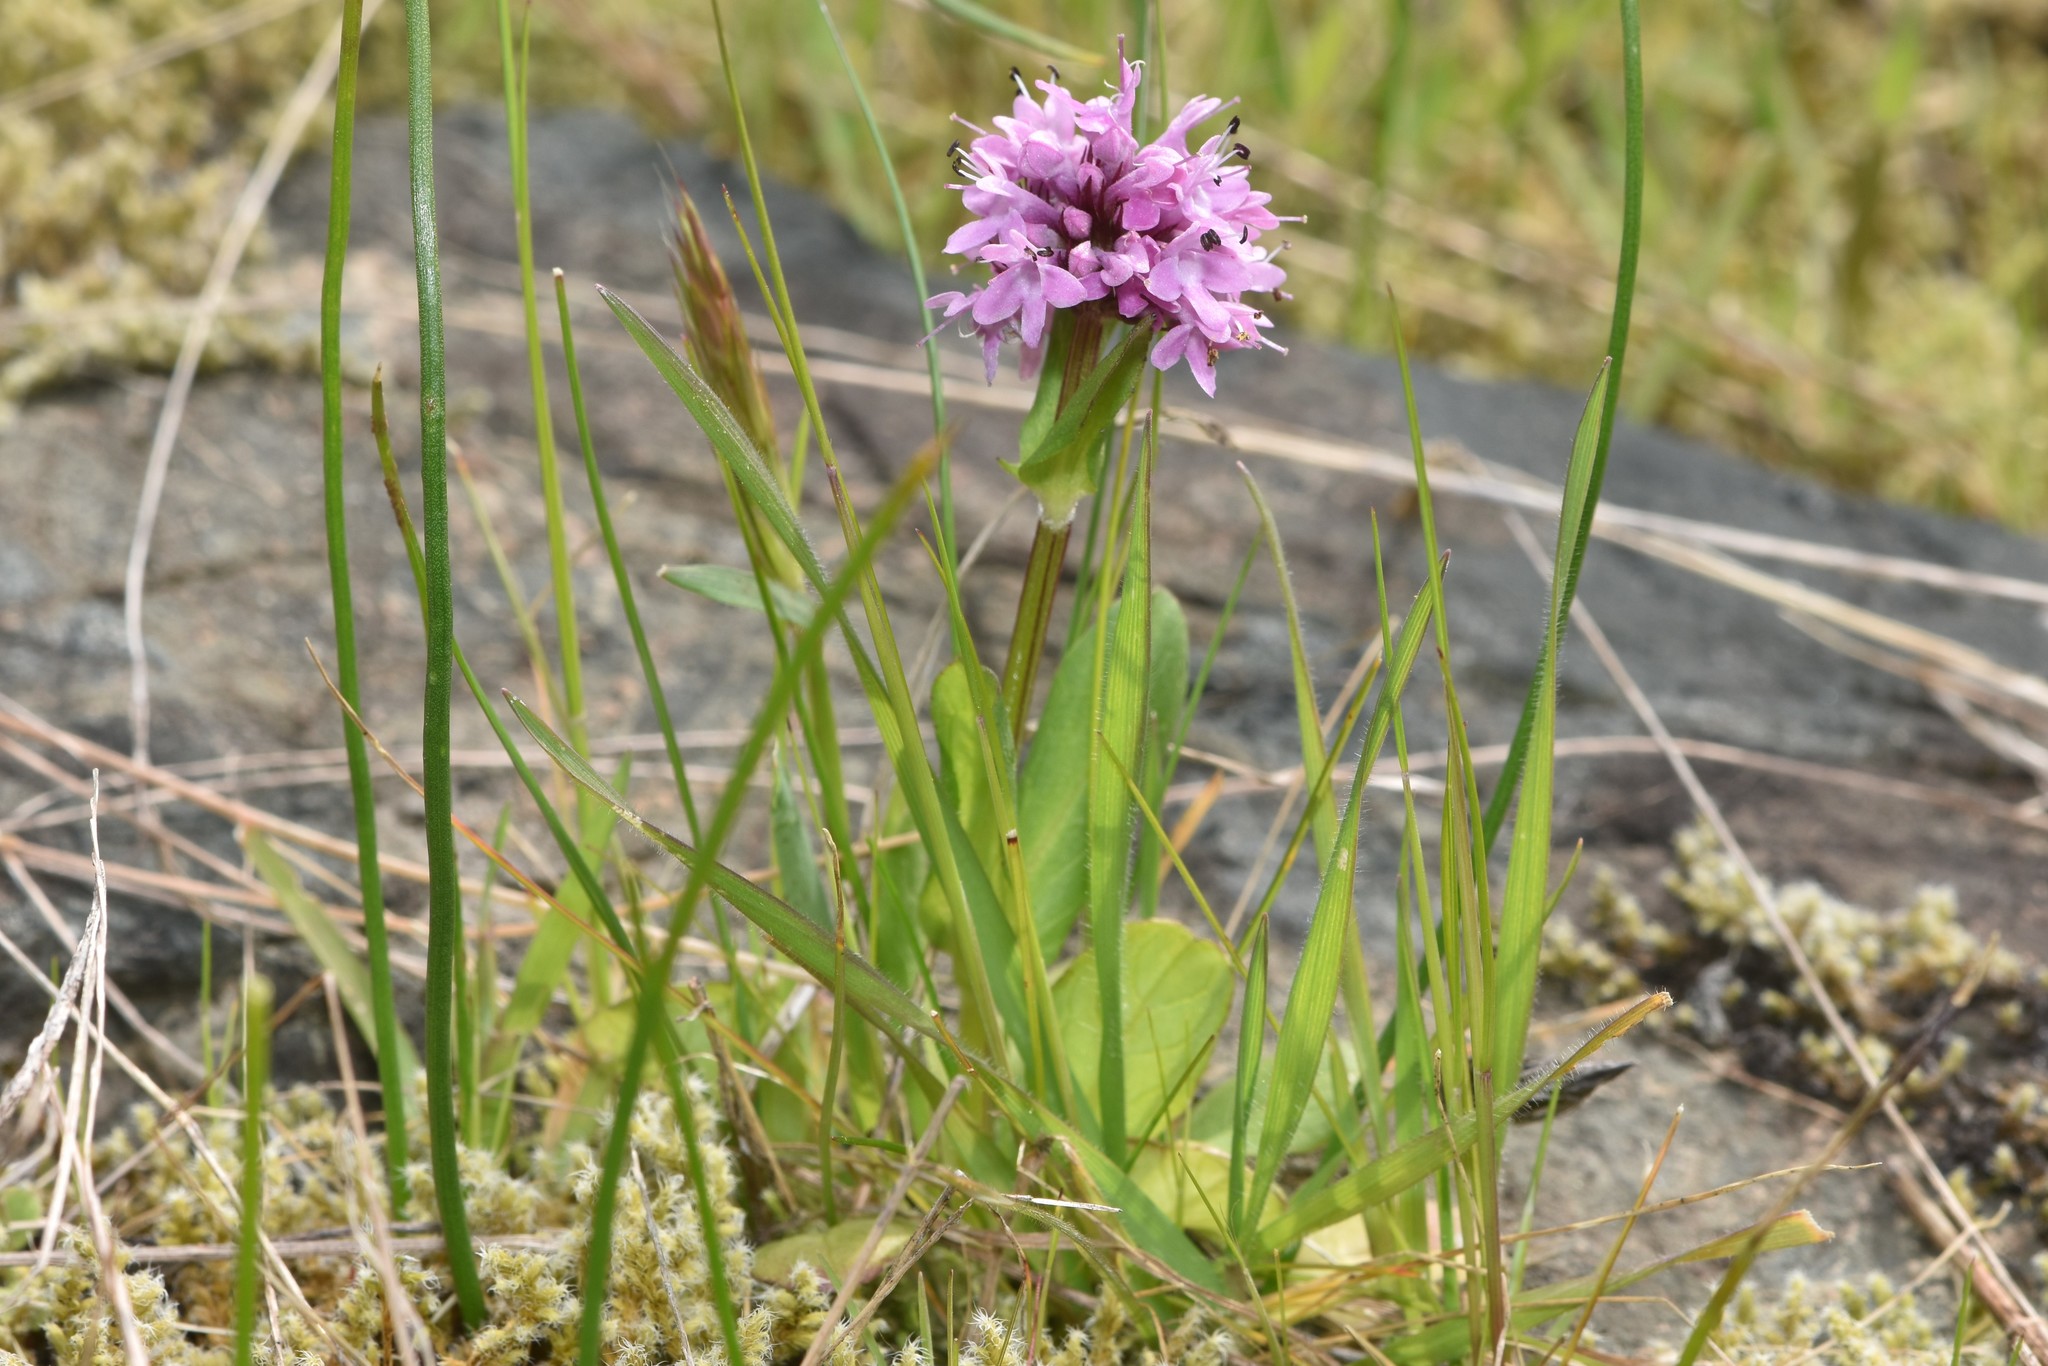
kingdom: Plantae
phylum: Tracheophyta
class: Magnoliopsida
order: Dipsacales
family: Caprifoliaceae
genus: Plectritis
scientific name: Plectritis congesta
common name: Pink plectritis
